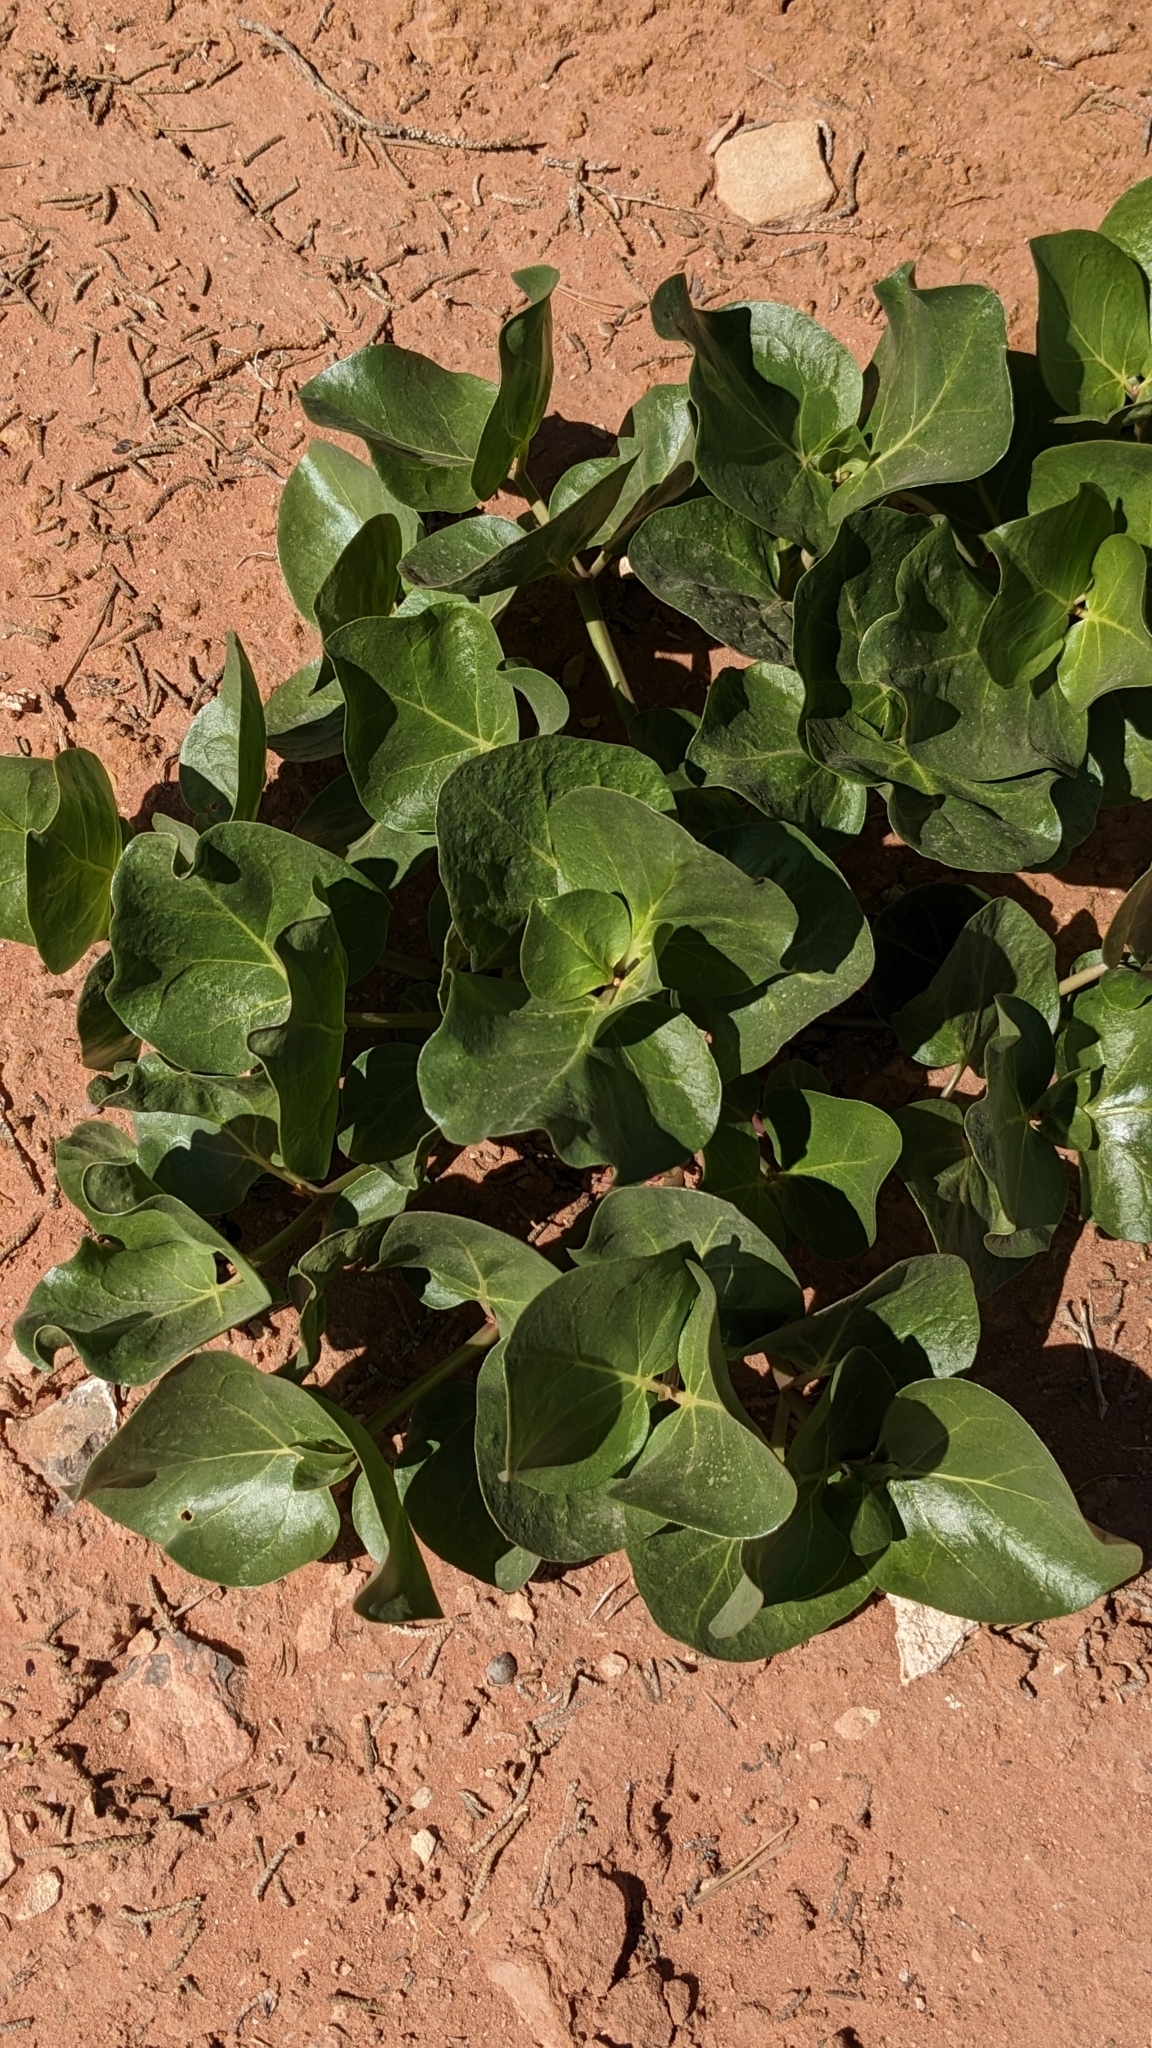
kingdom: Plantae
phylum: Tracheophyta
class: Magnoliopsida
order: Caryophyllales
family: Nyctaginaceae
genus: Mirabilis
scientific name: Mirabilis multiflora
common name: Froebel's four-o'clock
